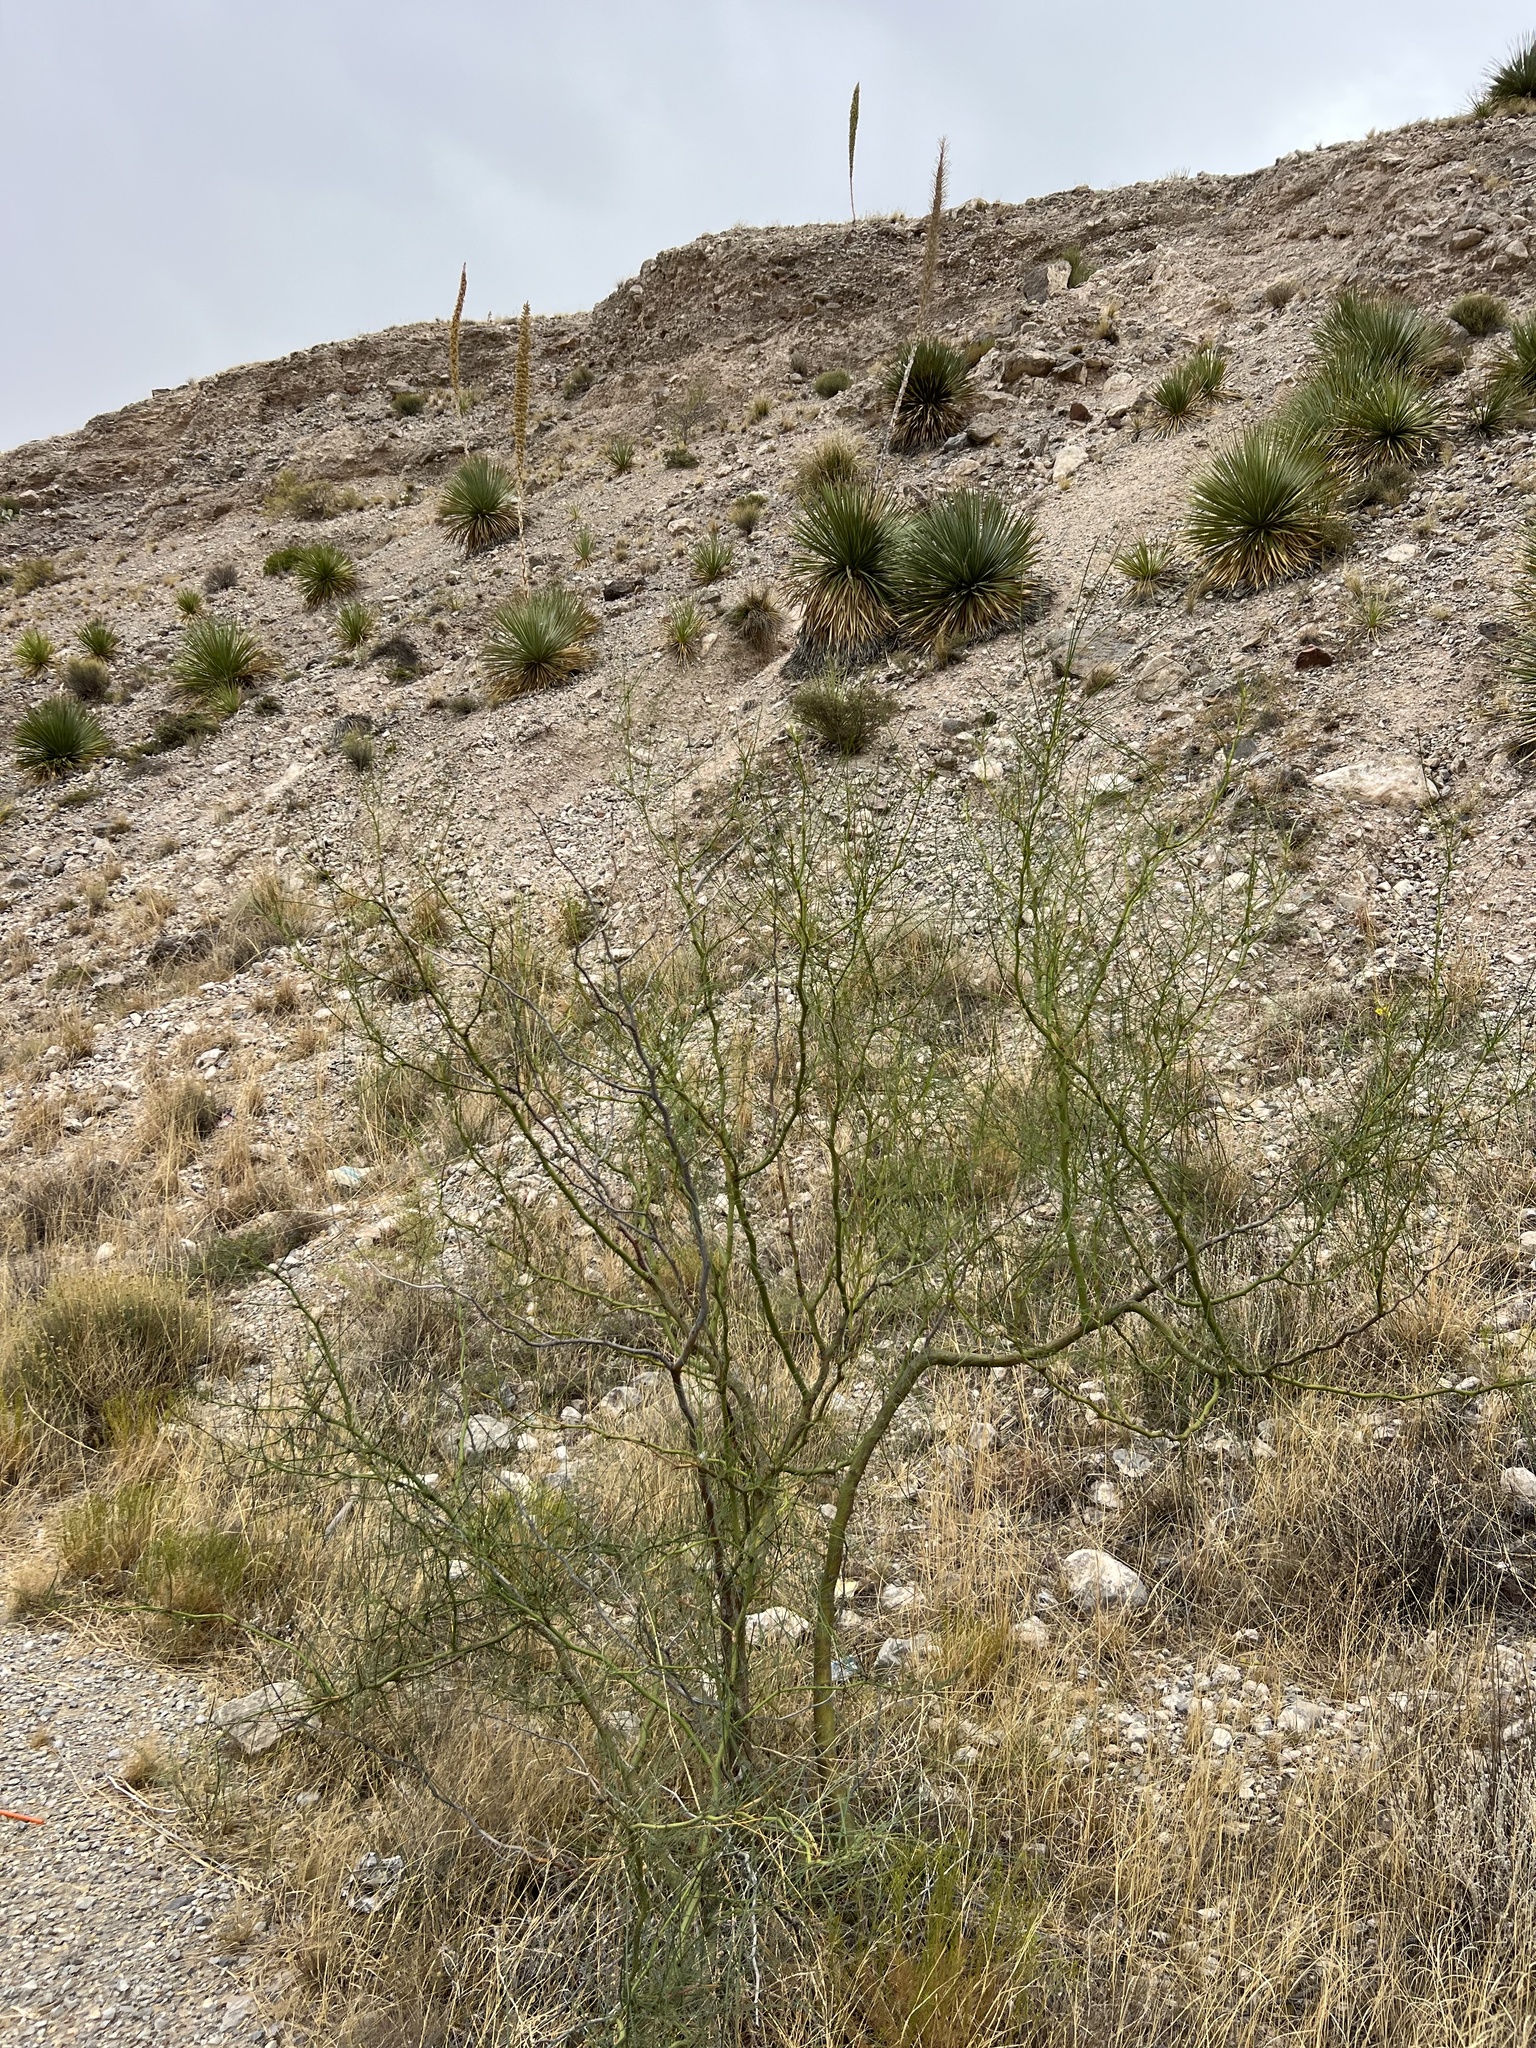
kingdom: Plantae
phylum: Tracheophyta
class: Magnoliopsida
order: Fabales
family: Fabaceae
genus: Parkinsonia
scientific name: Parkinsonia aculeata
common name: Jerusalem thorn
